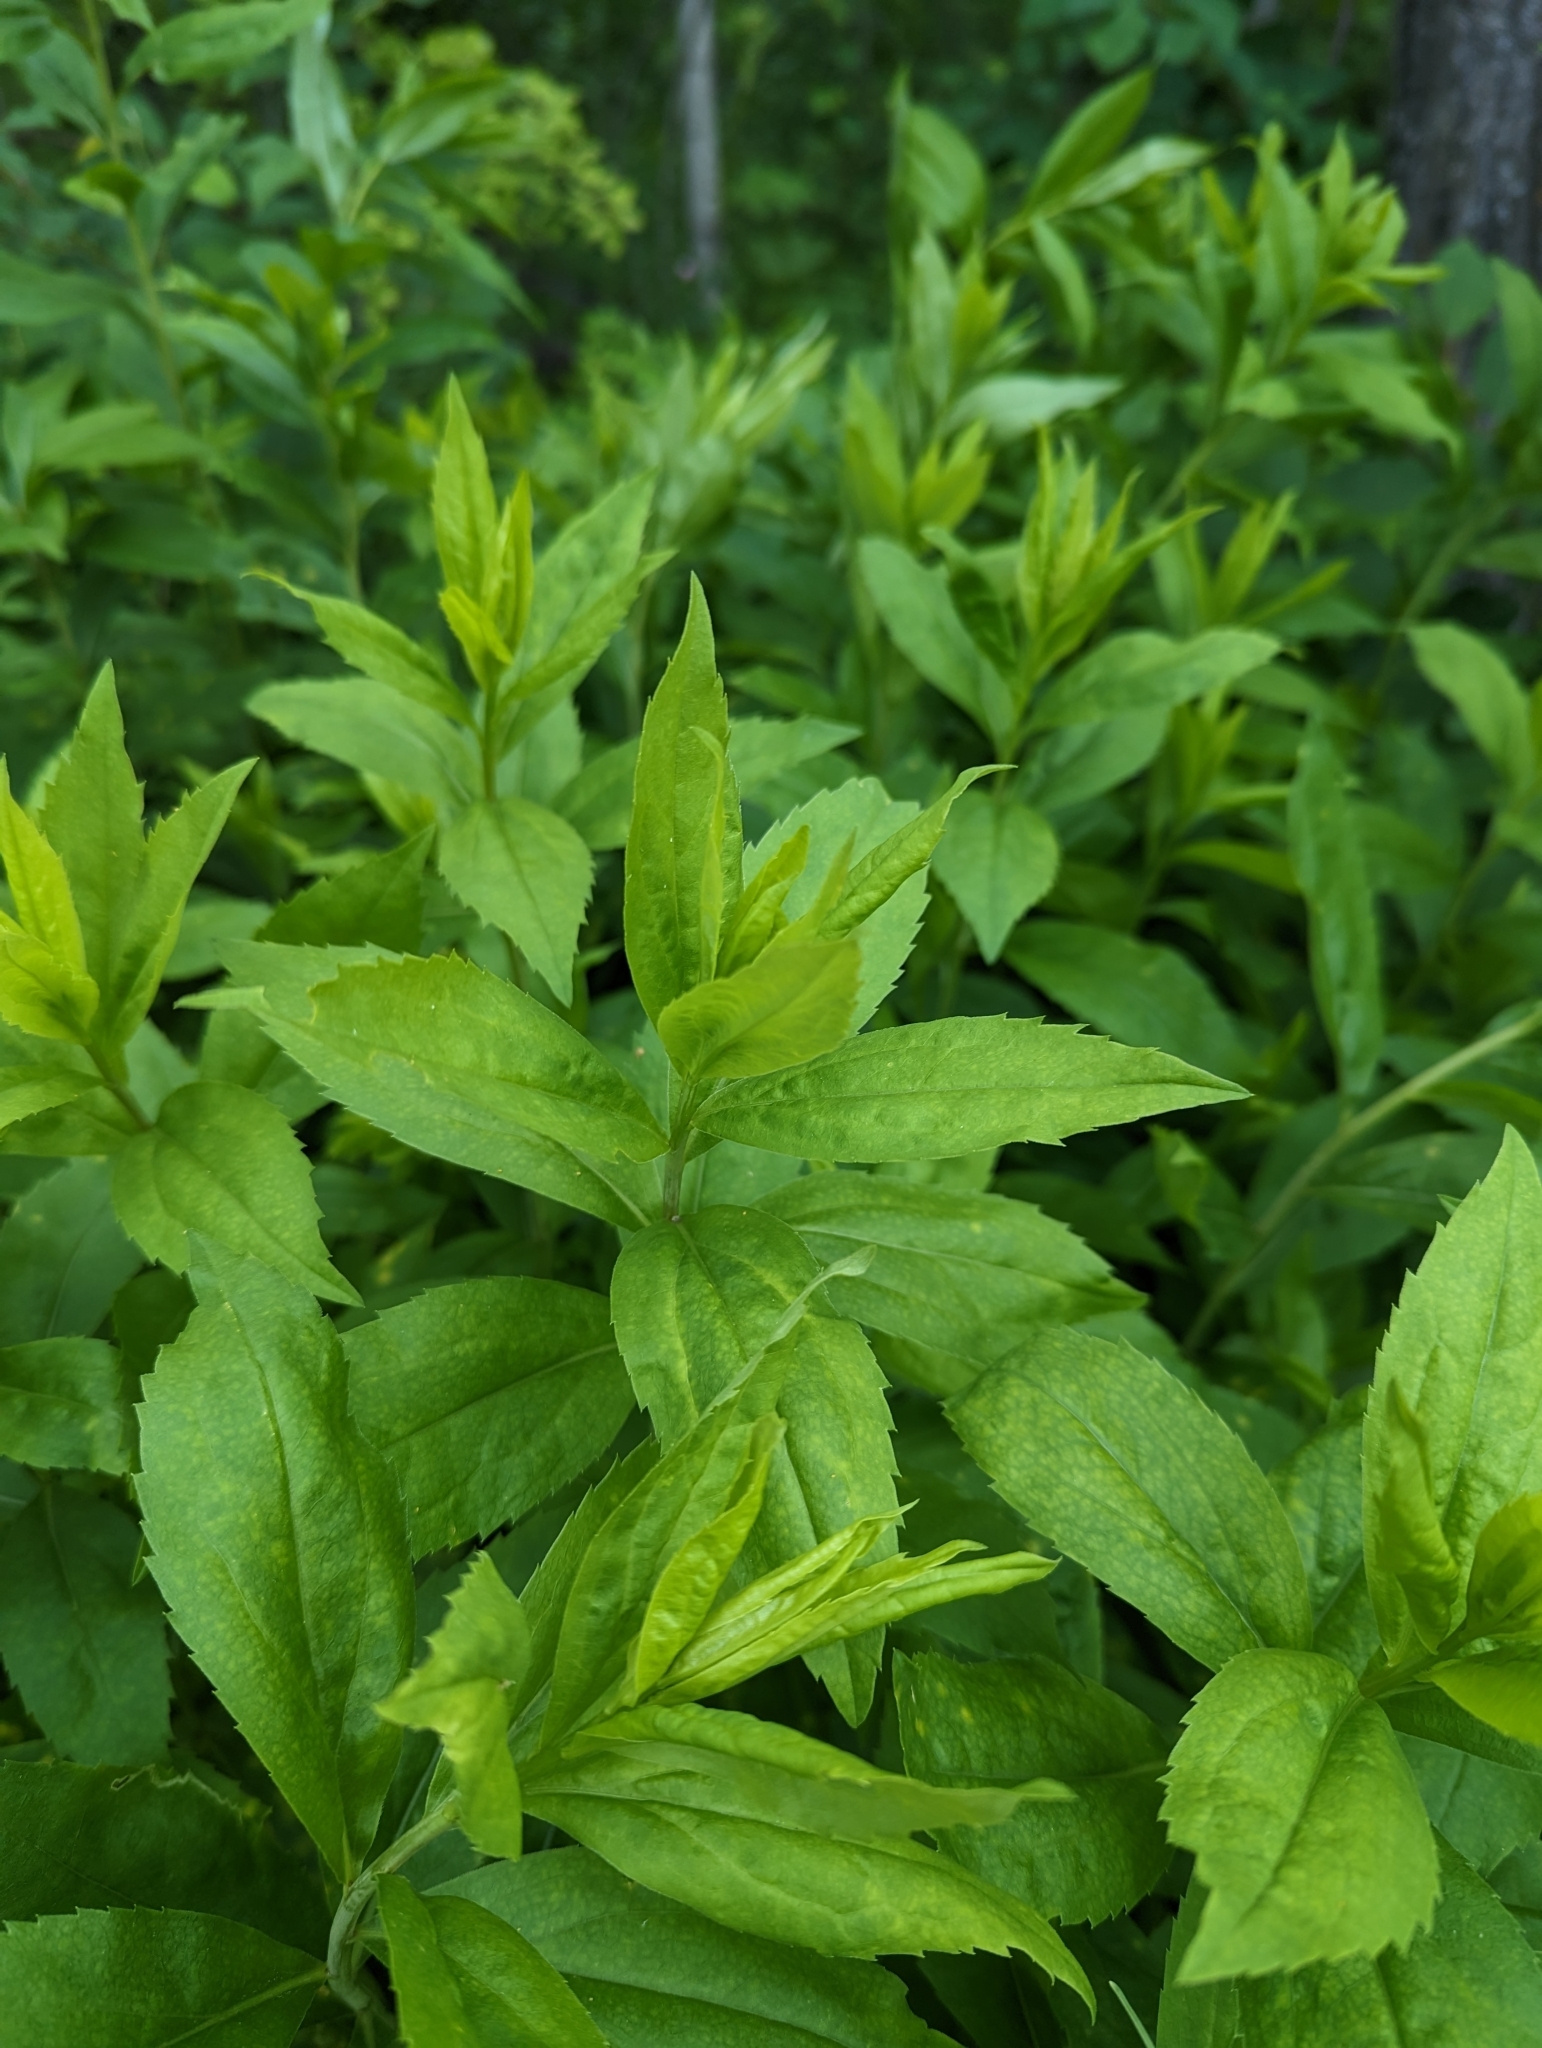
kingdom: Plantae
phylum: Tracheophyta
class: Magnoliopsida
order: Asterales
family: Asteraceae
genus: Eurybia
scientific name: Eurybia conspicua
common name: Showy aster
